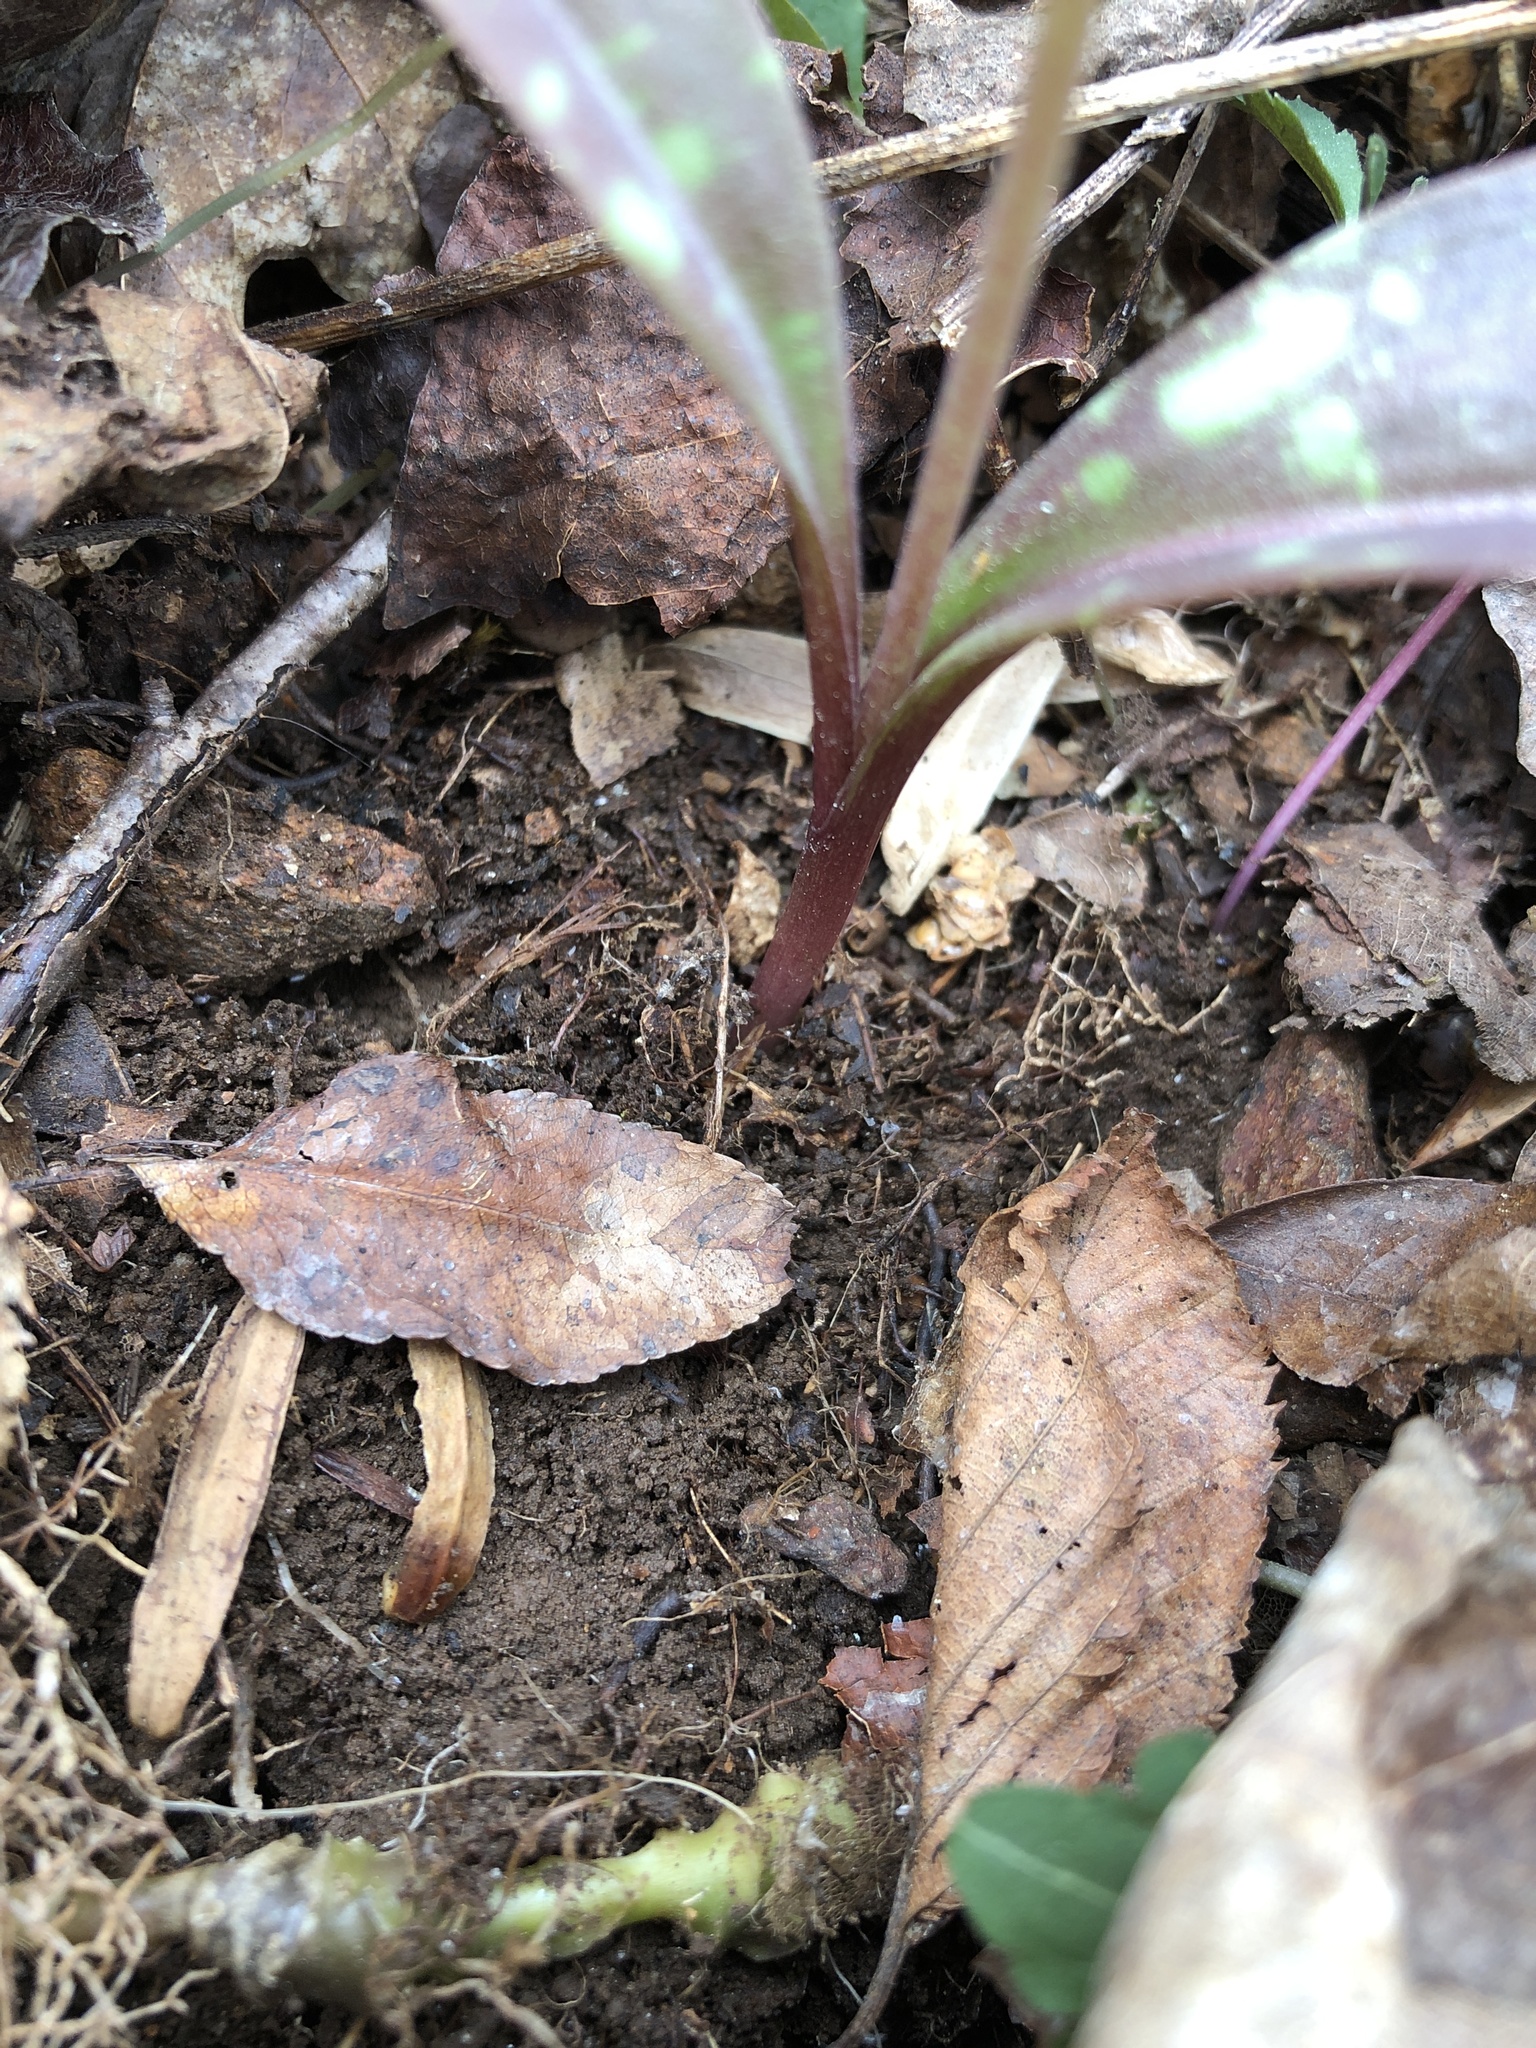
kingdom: Plantae
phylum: Tracheophyta
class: Liliopsida
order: Liliales
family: Liliaceae
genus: Erythronium
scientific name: Erythronium umbilicatum
